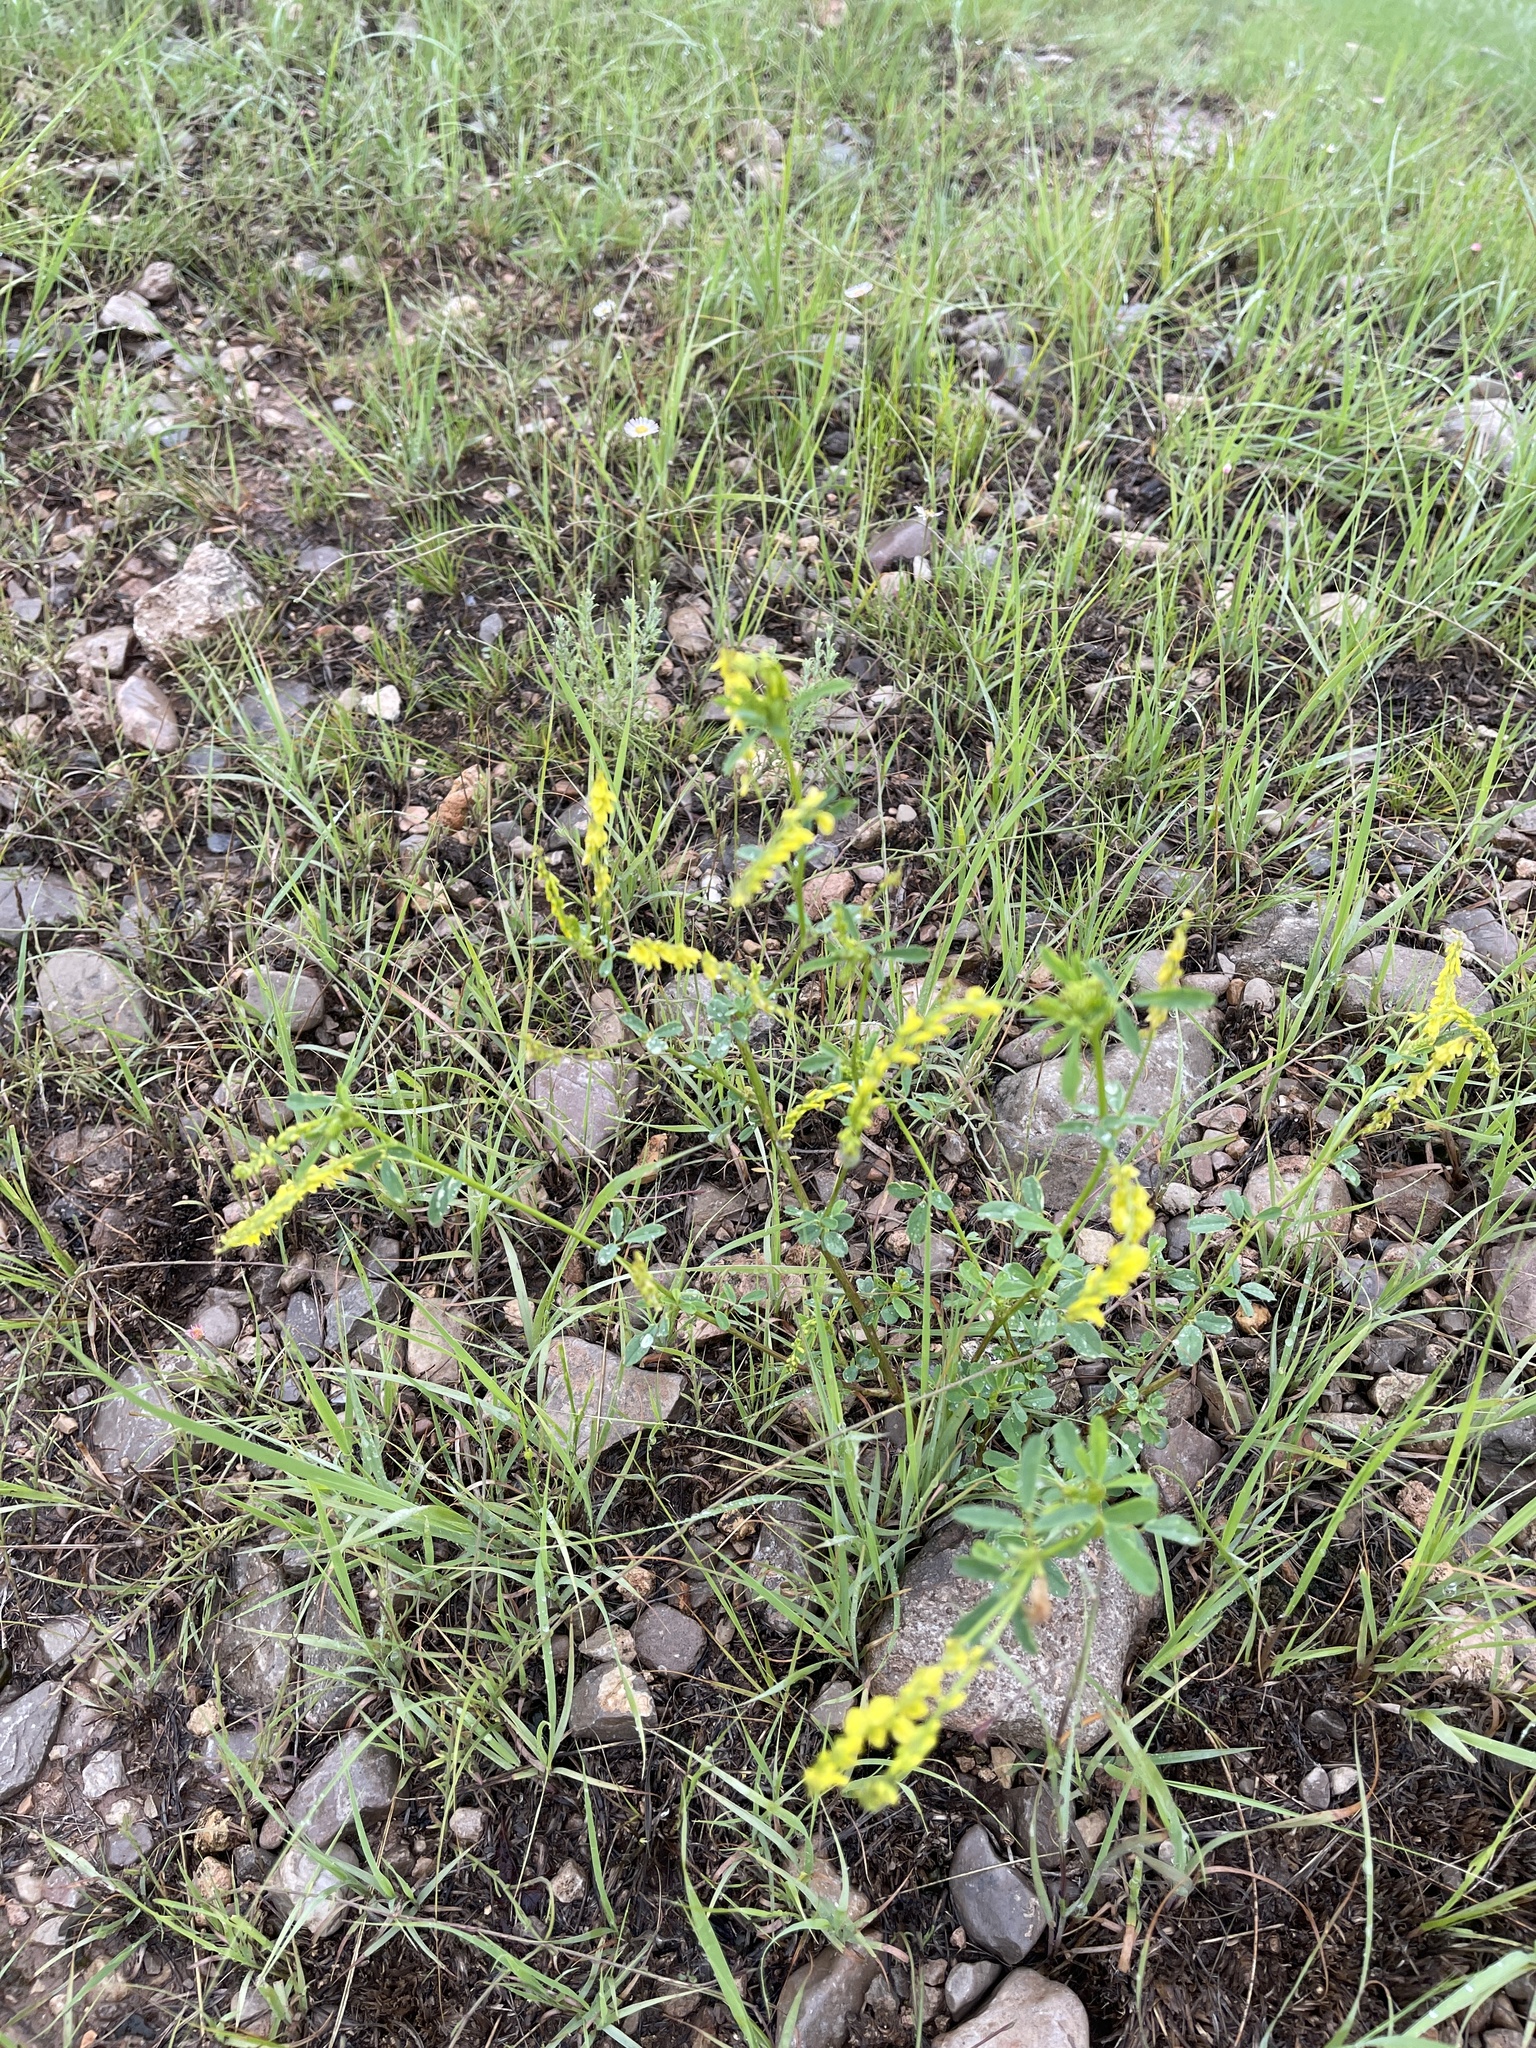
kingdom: Plantae
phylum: Tracheophyta
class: Magnoliopsida
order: Fabales
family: Fabaceae
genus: Melilotus
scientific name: Melilotus officinalis
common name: Sweetclover
